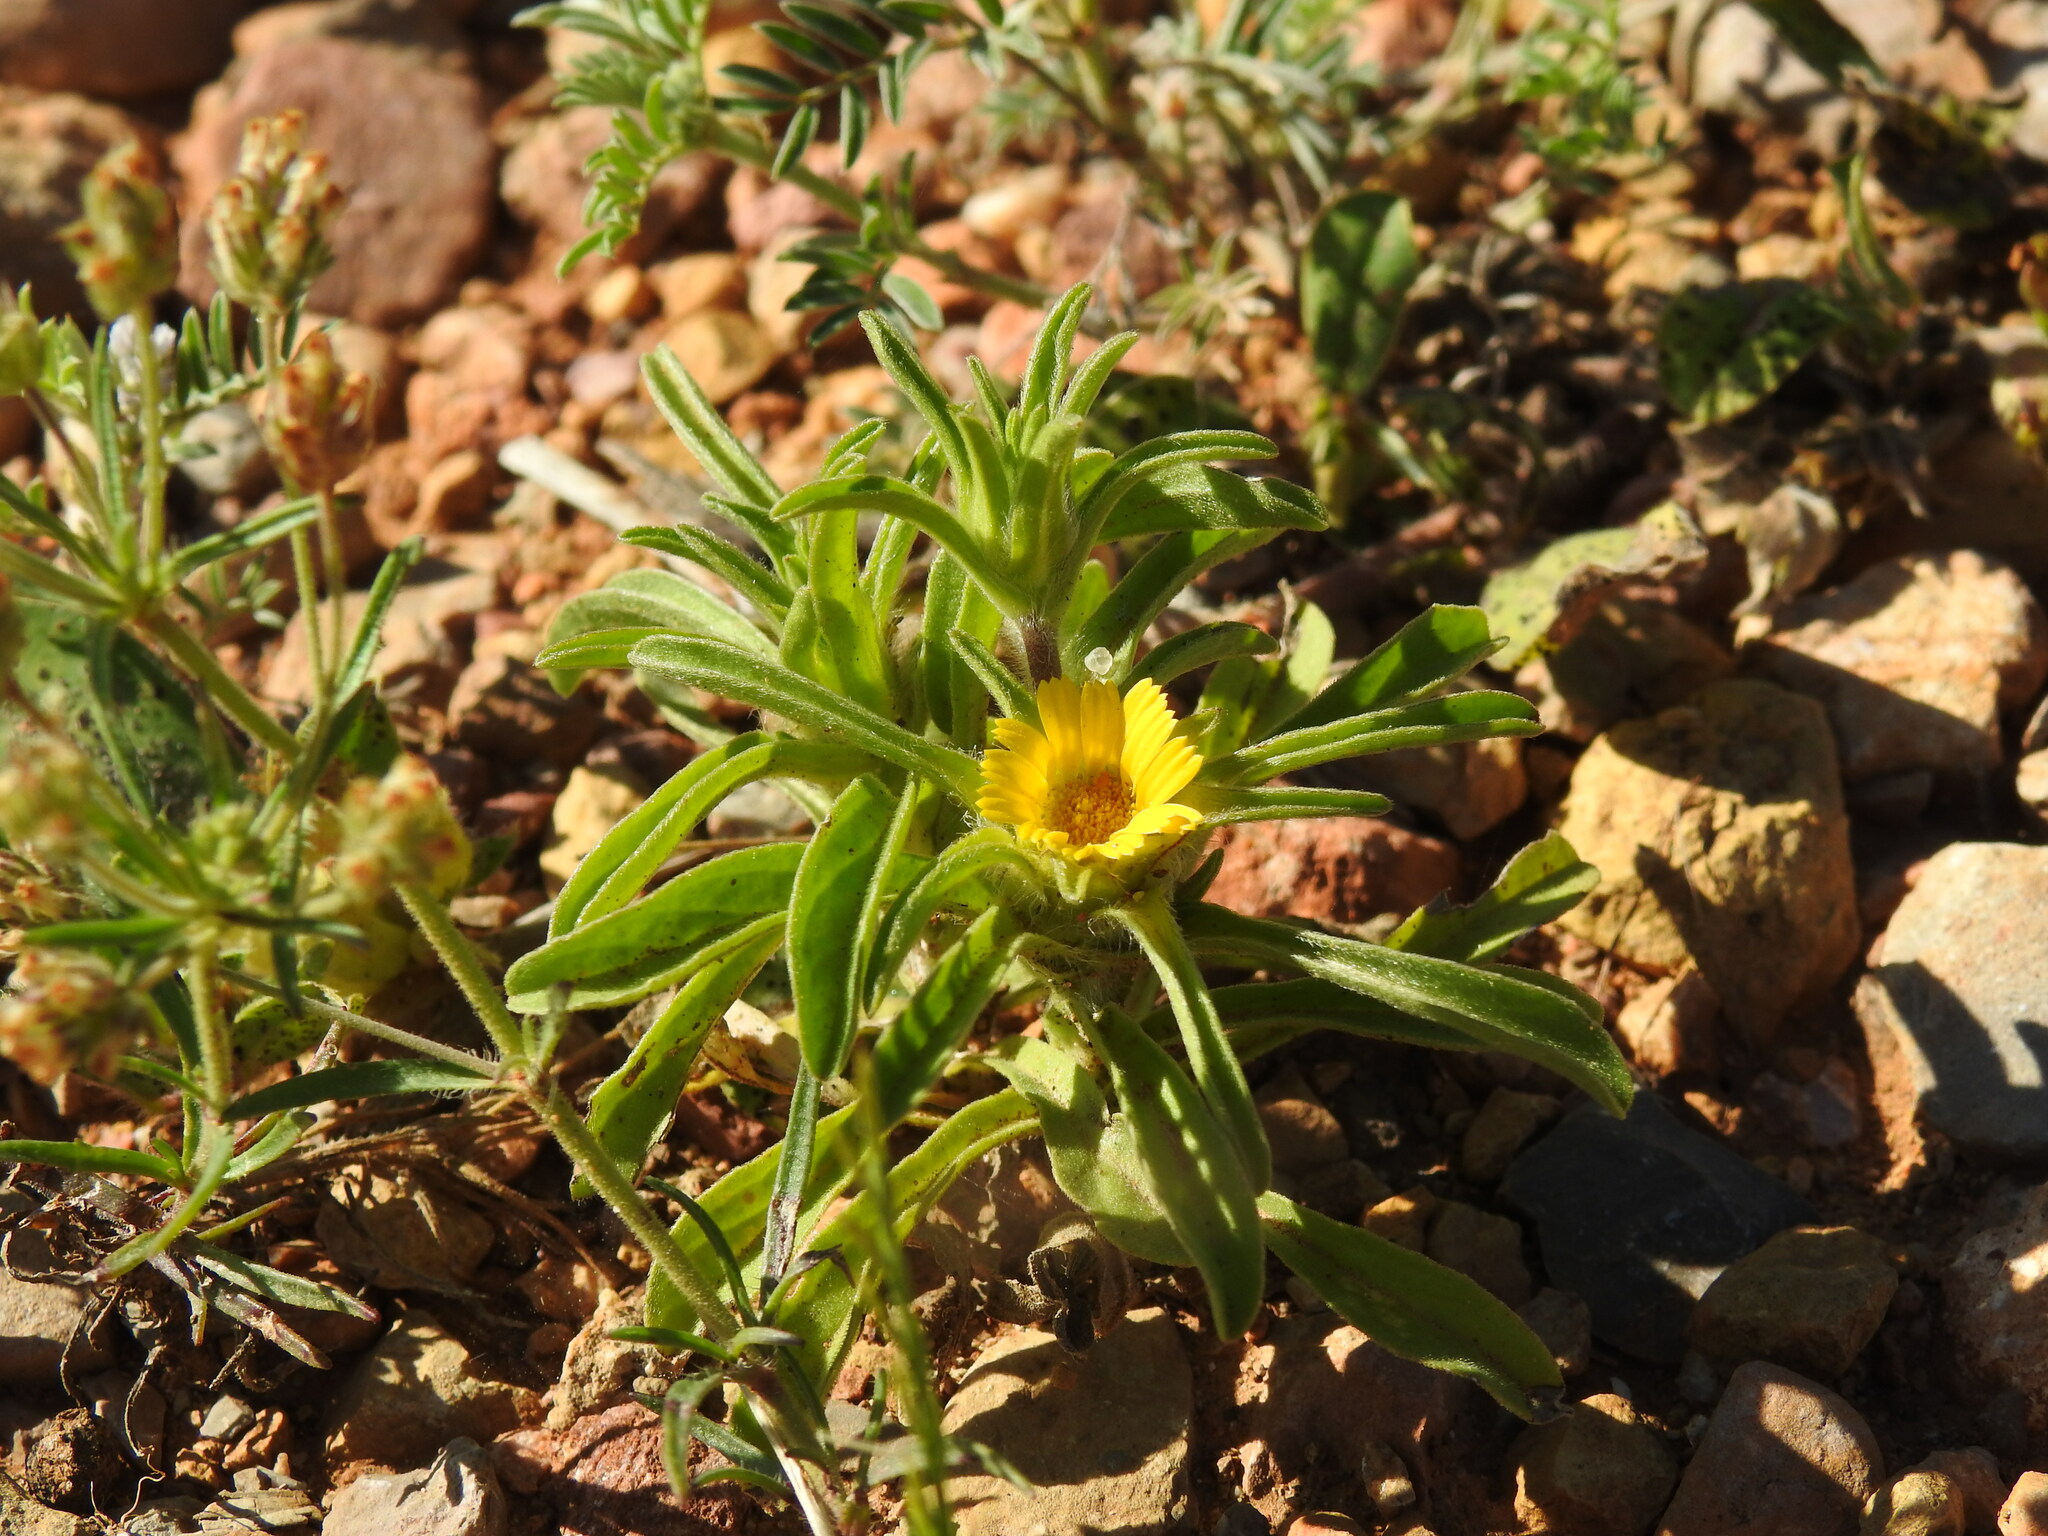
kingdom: Plantae
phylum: Tracheophyta
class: Magnoliopsida
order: Asterales
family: Asteraceae
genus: Asteriscus
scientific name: Asteriscus aquaticus
